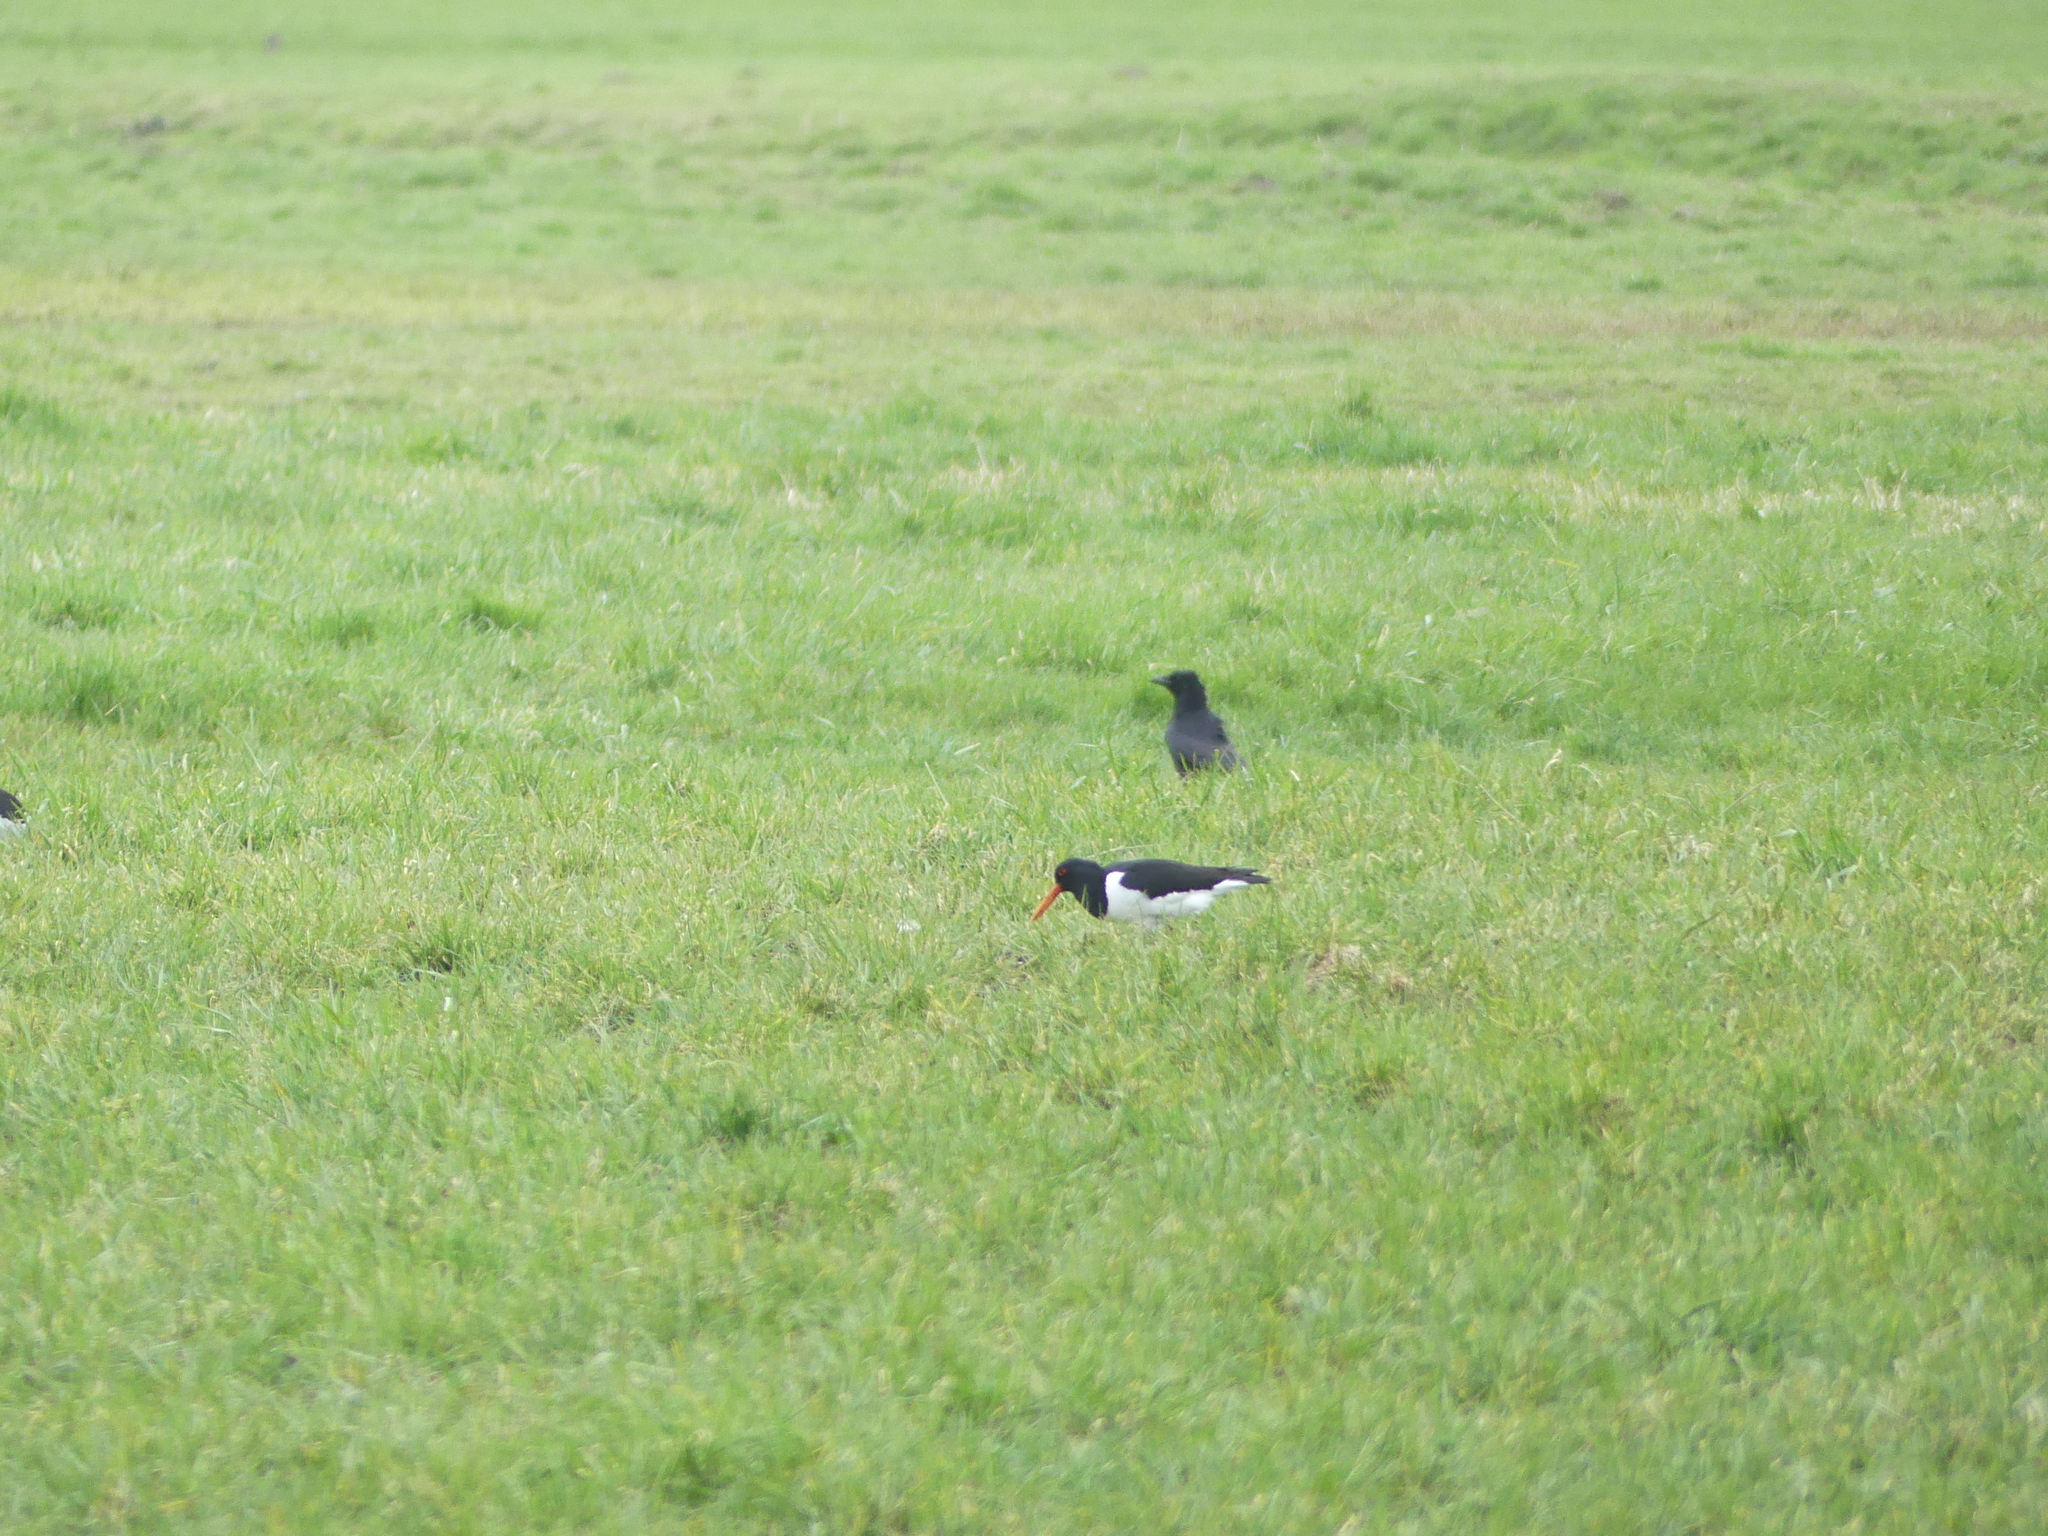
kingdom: Animalia
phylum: Chordata
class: Aves
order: Charadriiformes
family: Haematopodidae
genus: Haematopus
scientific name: Haematopus ostralegus
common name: Eurasian oystercatcher
